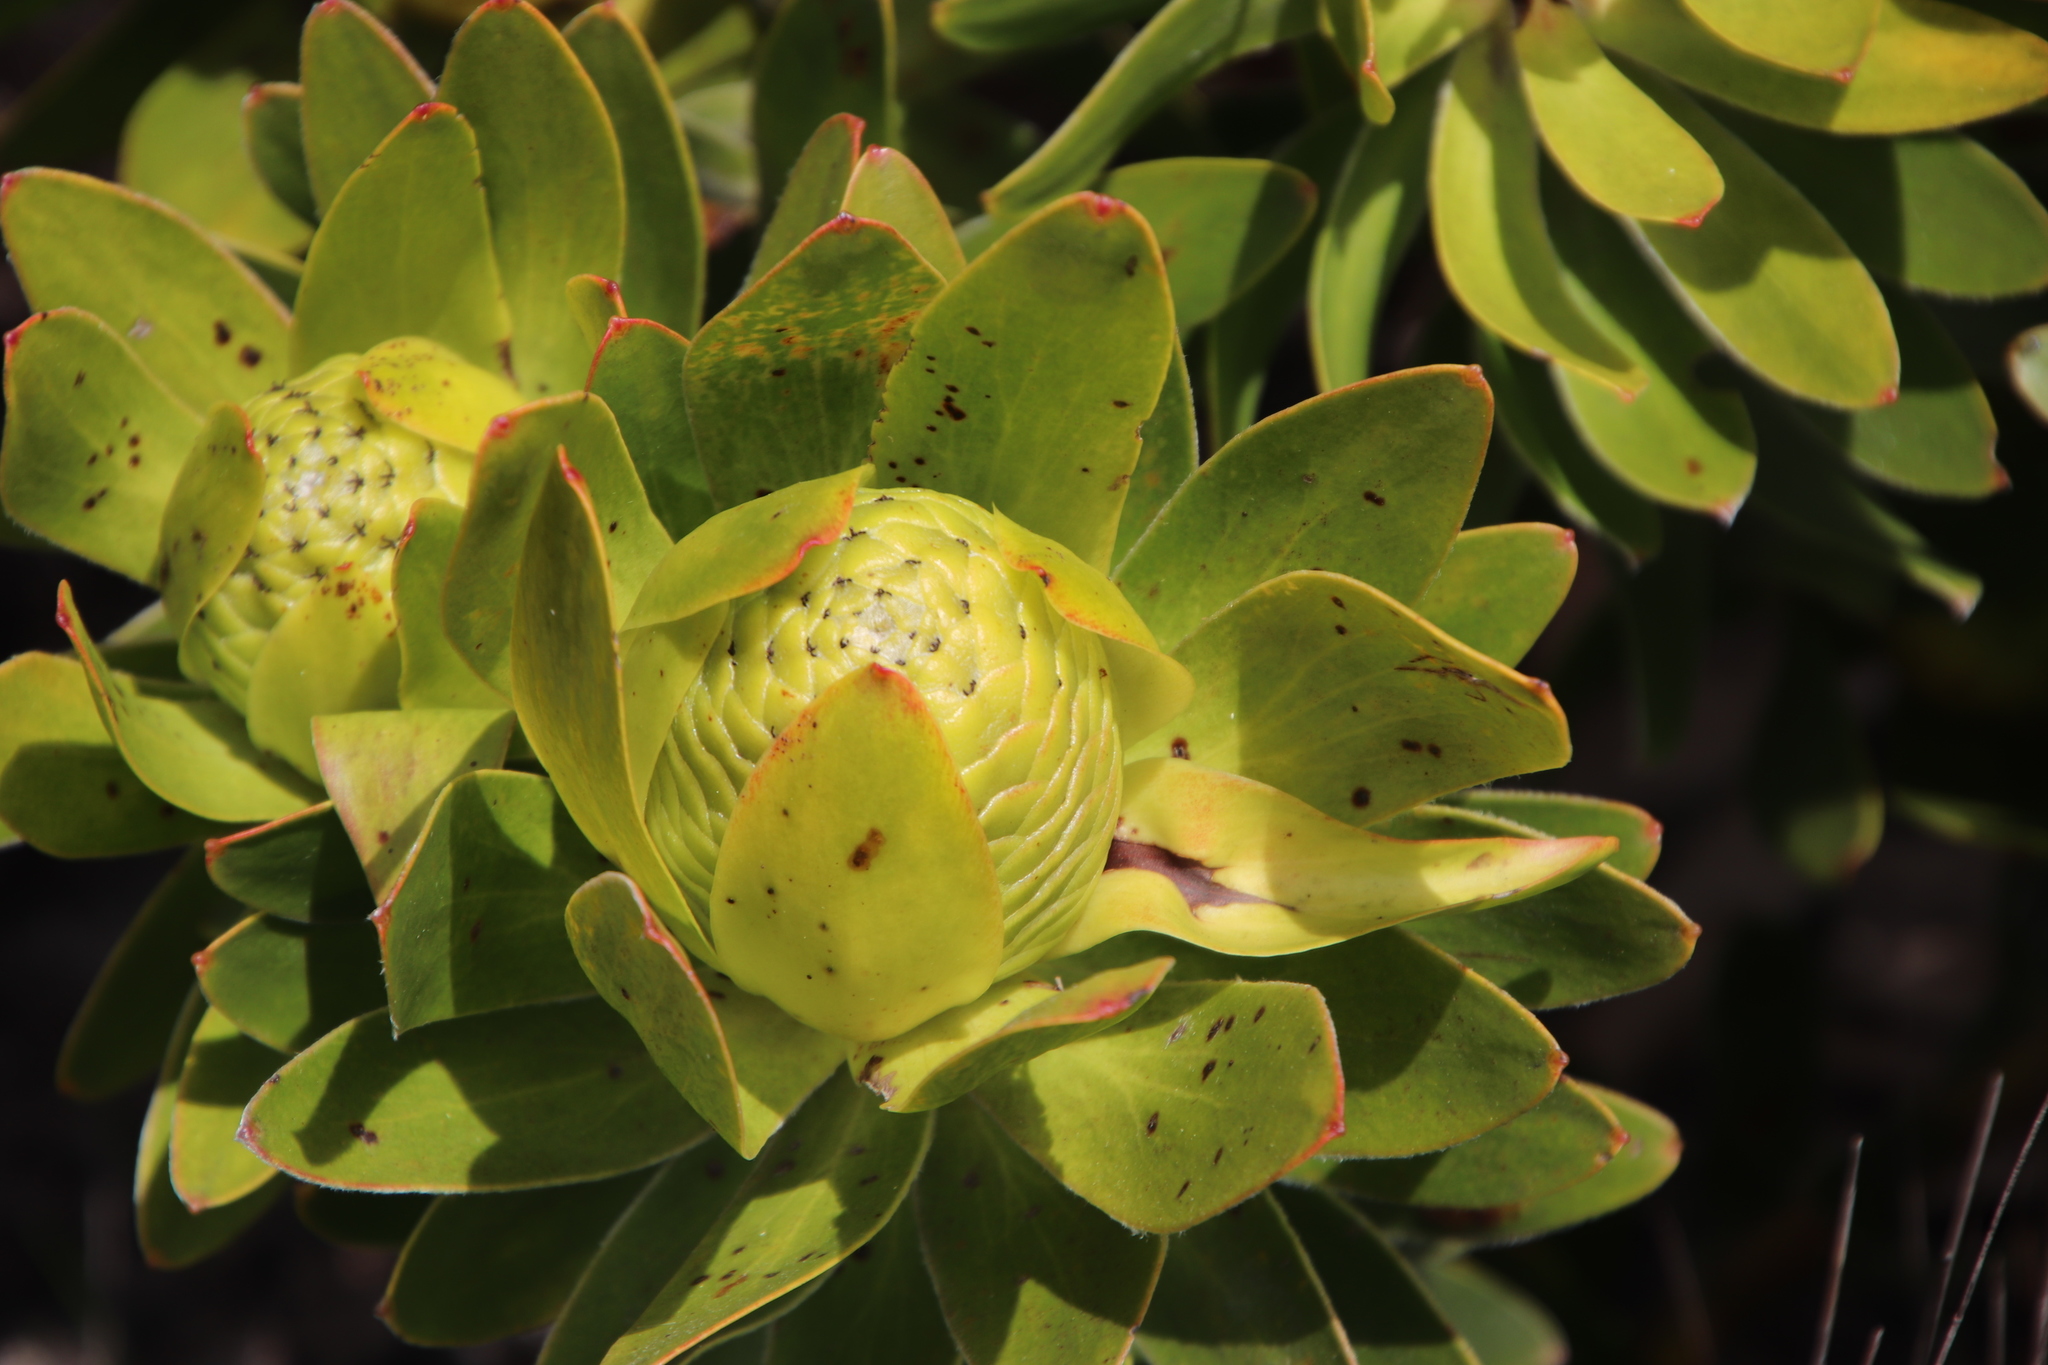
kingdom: Plantae
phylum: Tracheophyta
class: Magnoliopsida
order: Proteales
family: Proteaceae
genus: Leucadendron
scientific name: Leucadendron laureolum
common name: Golden sunshinebush
